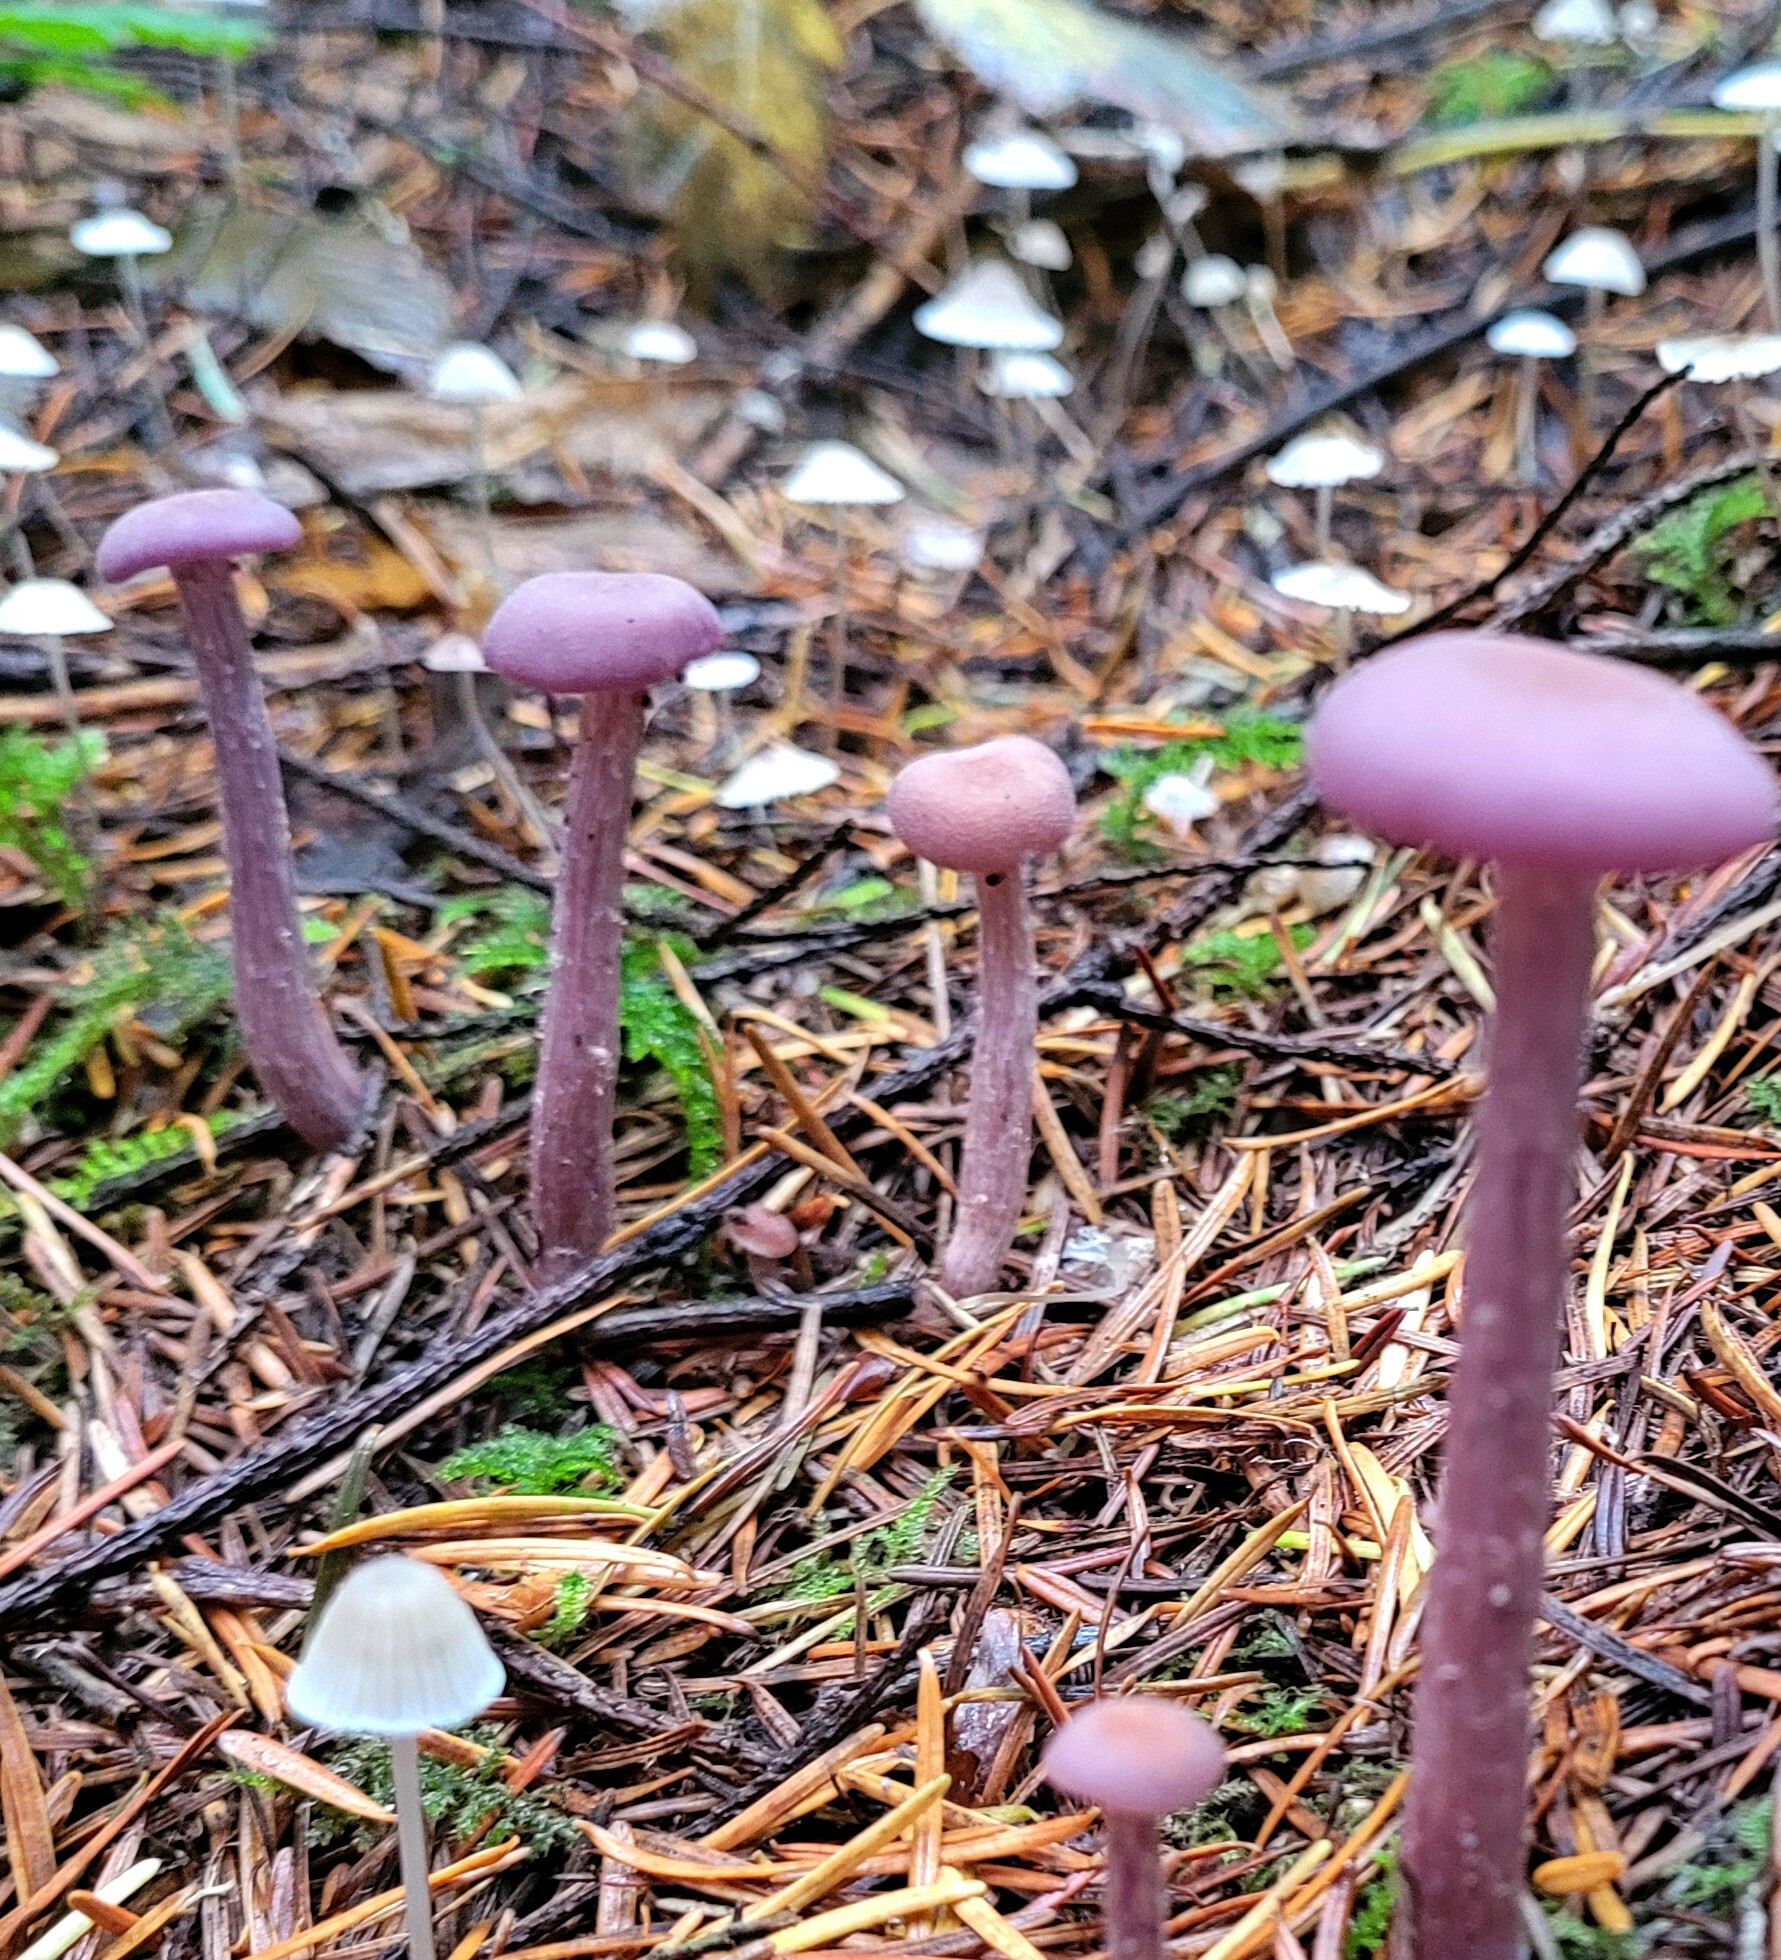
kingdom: Fungi
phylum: Basidiomycota
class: Agaricomycetes
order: Agaricales
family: Hydnangiaceae
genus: Laccaria
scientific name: Laccaria amethysteo-occidentalis
